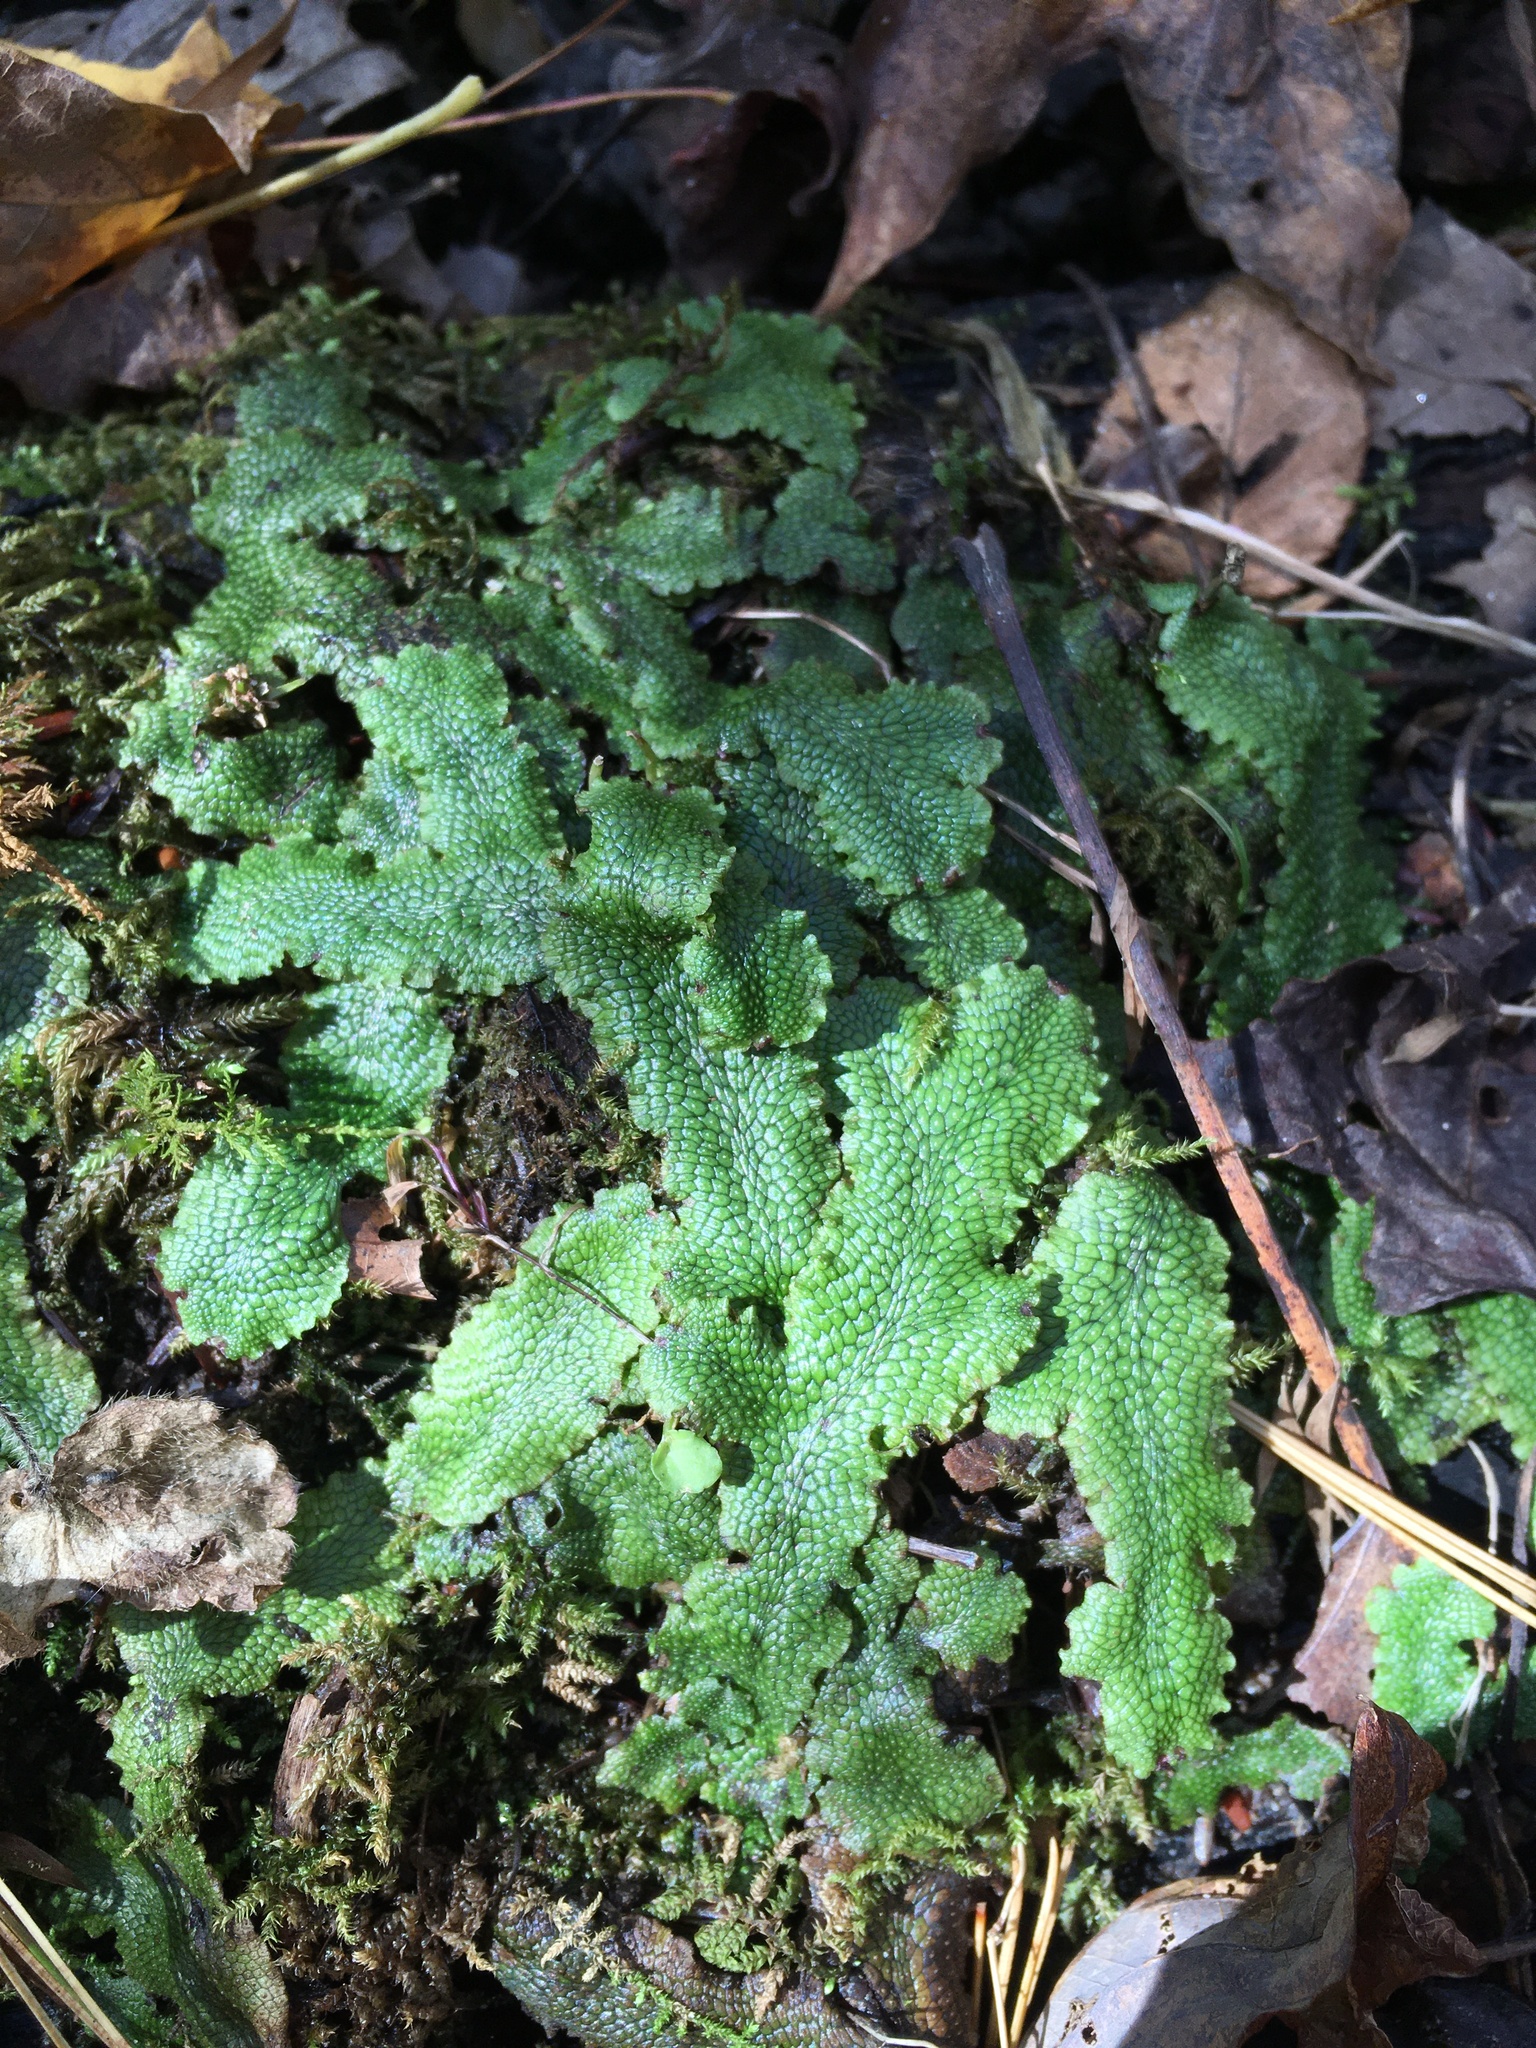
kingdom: Plantae
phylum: Marchantiophyta
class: Marchantiopsida
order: Marchantiales
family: Conocephalaceae
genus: Conocephalum
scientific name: Conocephalum salebrosum
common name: Cat-tongue liverwort
